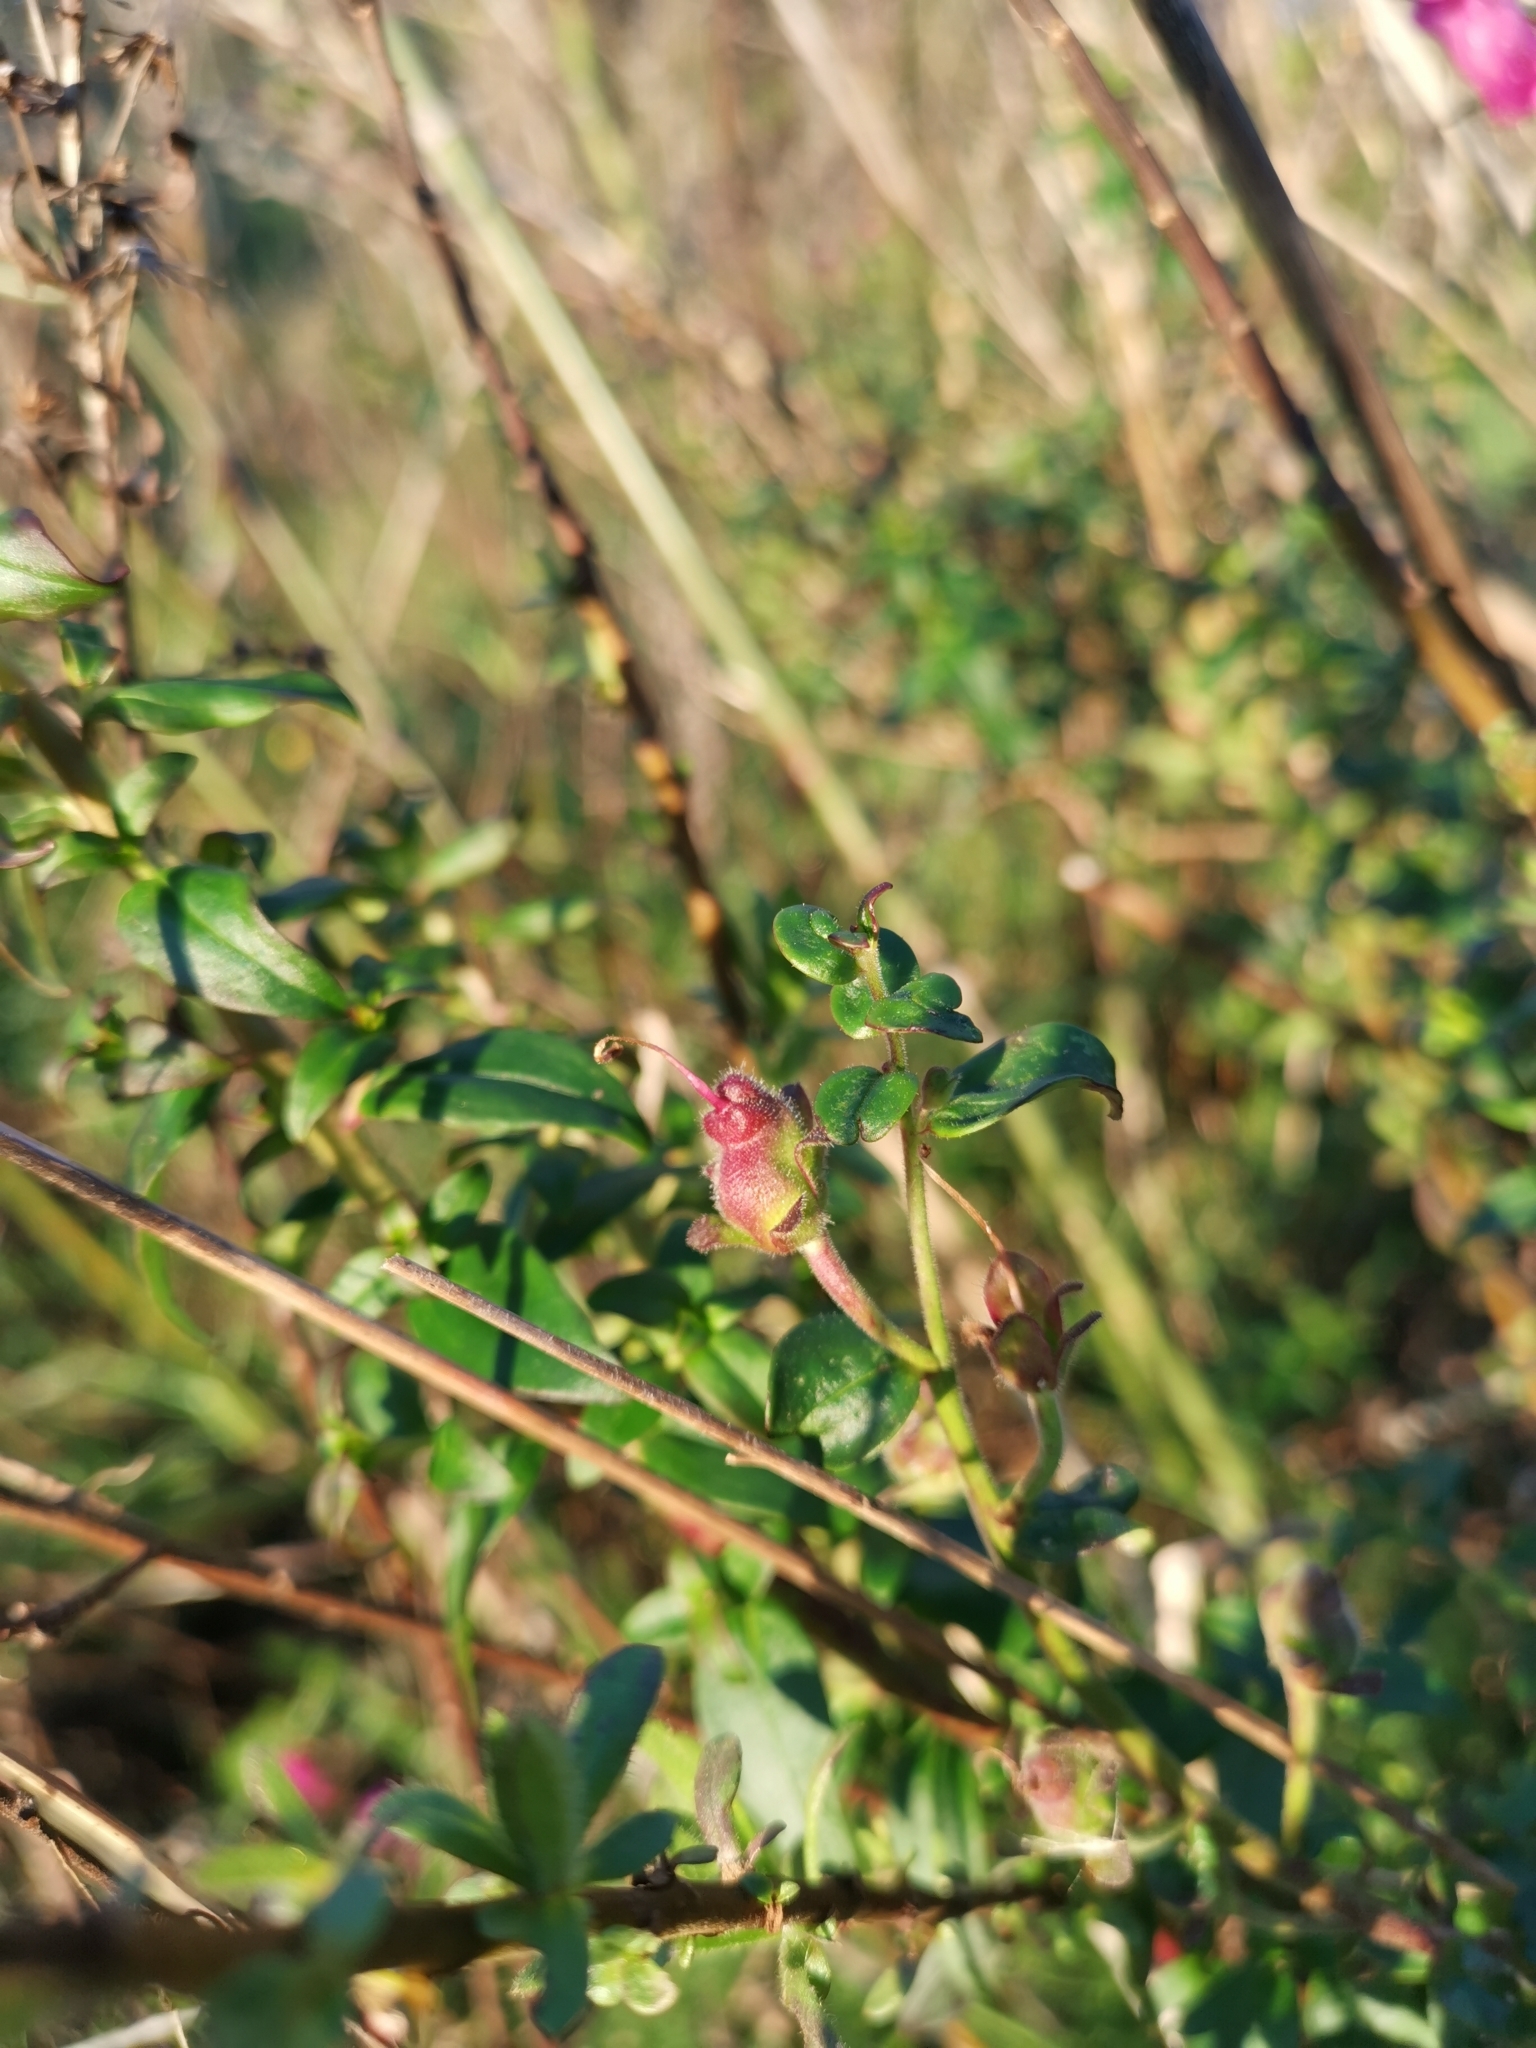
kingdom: Plantae
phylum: Tracheophyta
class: Magnoliopsida
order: Lamiales
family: Plantaginaceae
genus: Antirrhinum
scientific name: Antirrhinum linkianum
